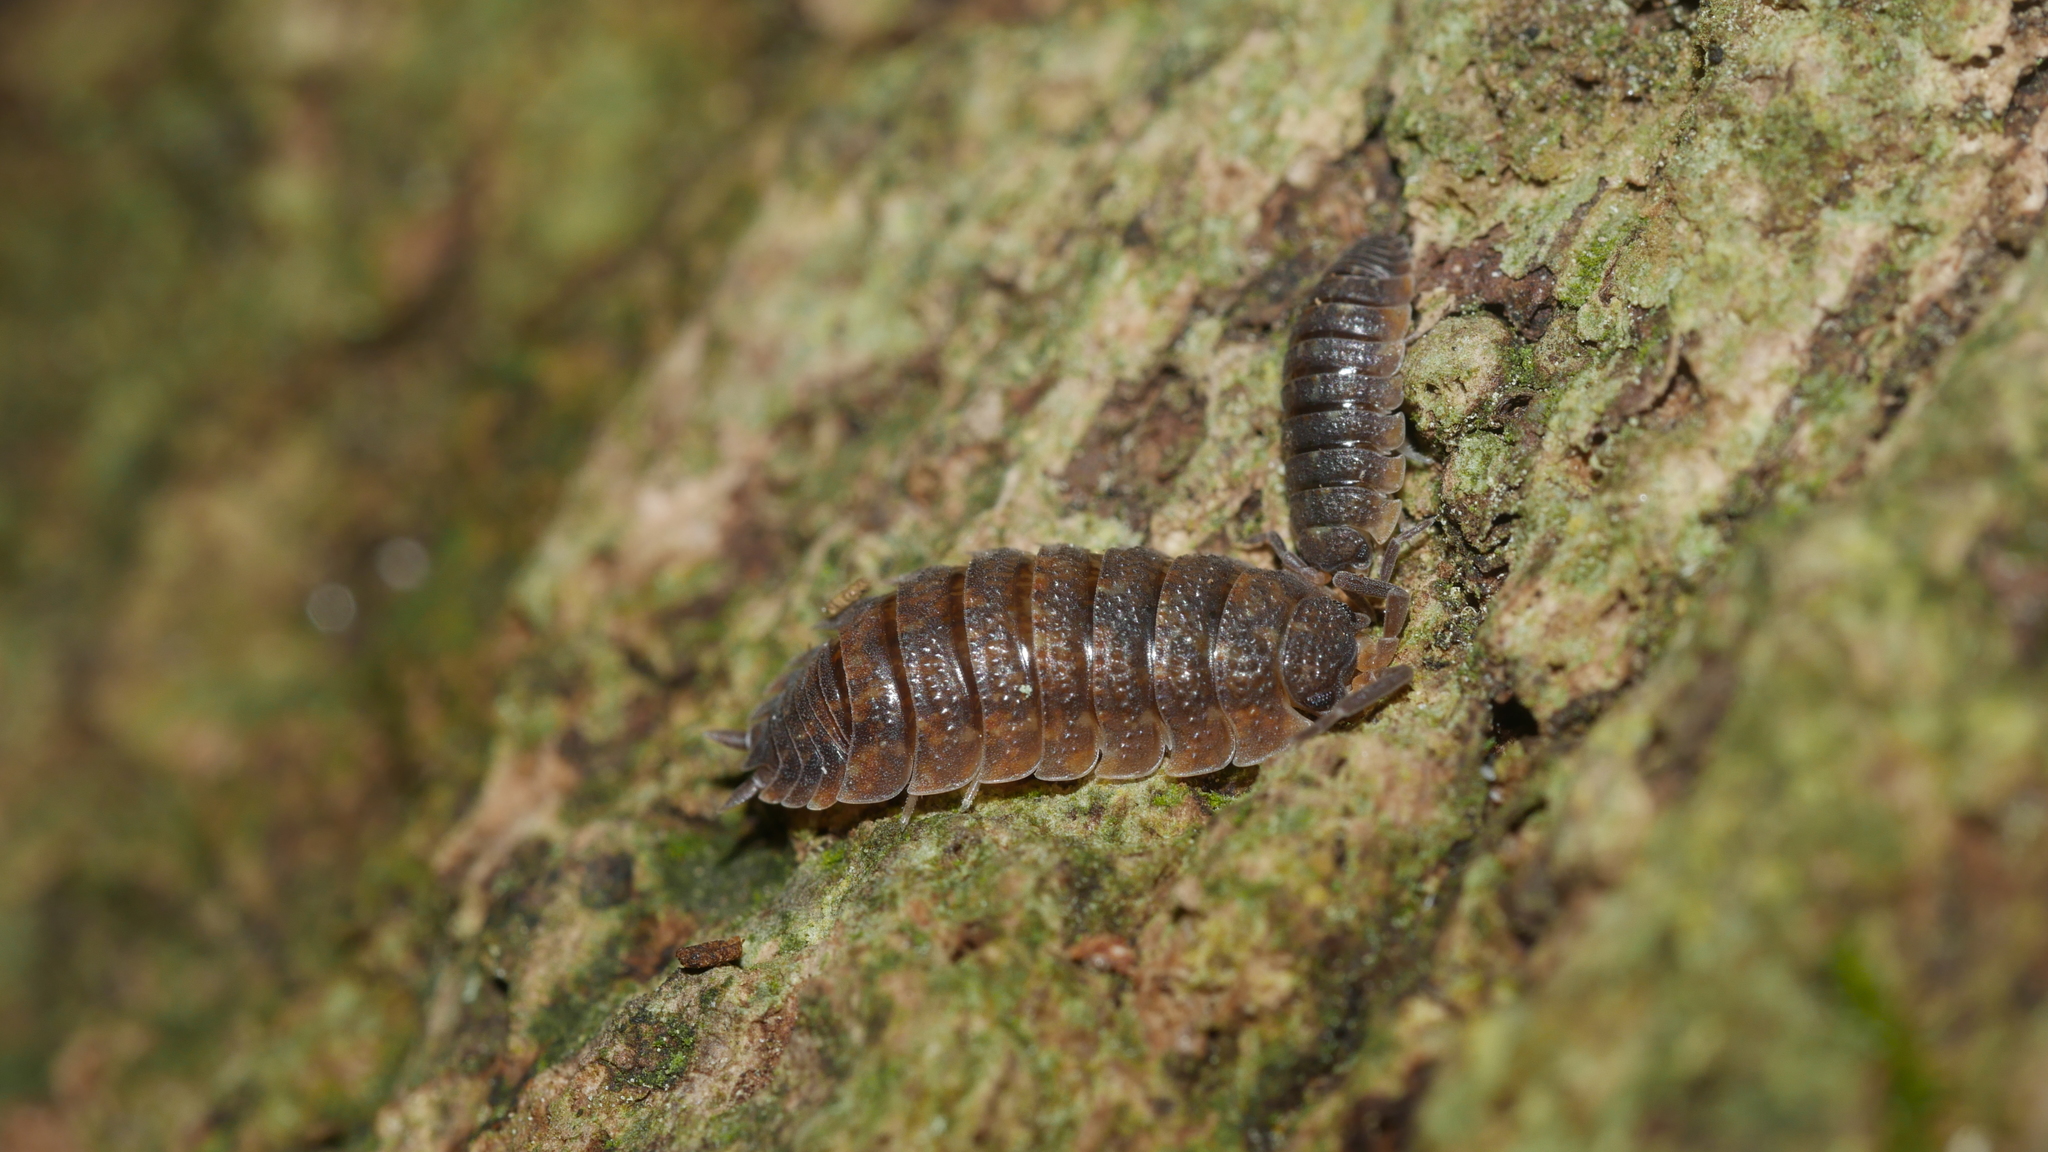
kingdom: Animalia
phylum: Arthropoda
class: Malacostraca
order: Isopoda
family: Porcellionidae
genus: Porcellio
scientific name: Porcellio scaber
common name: Common rough woodlouse
